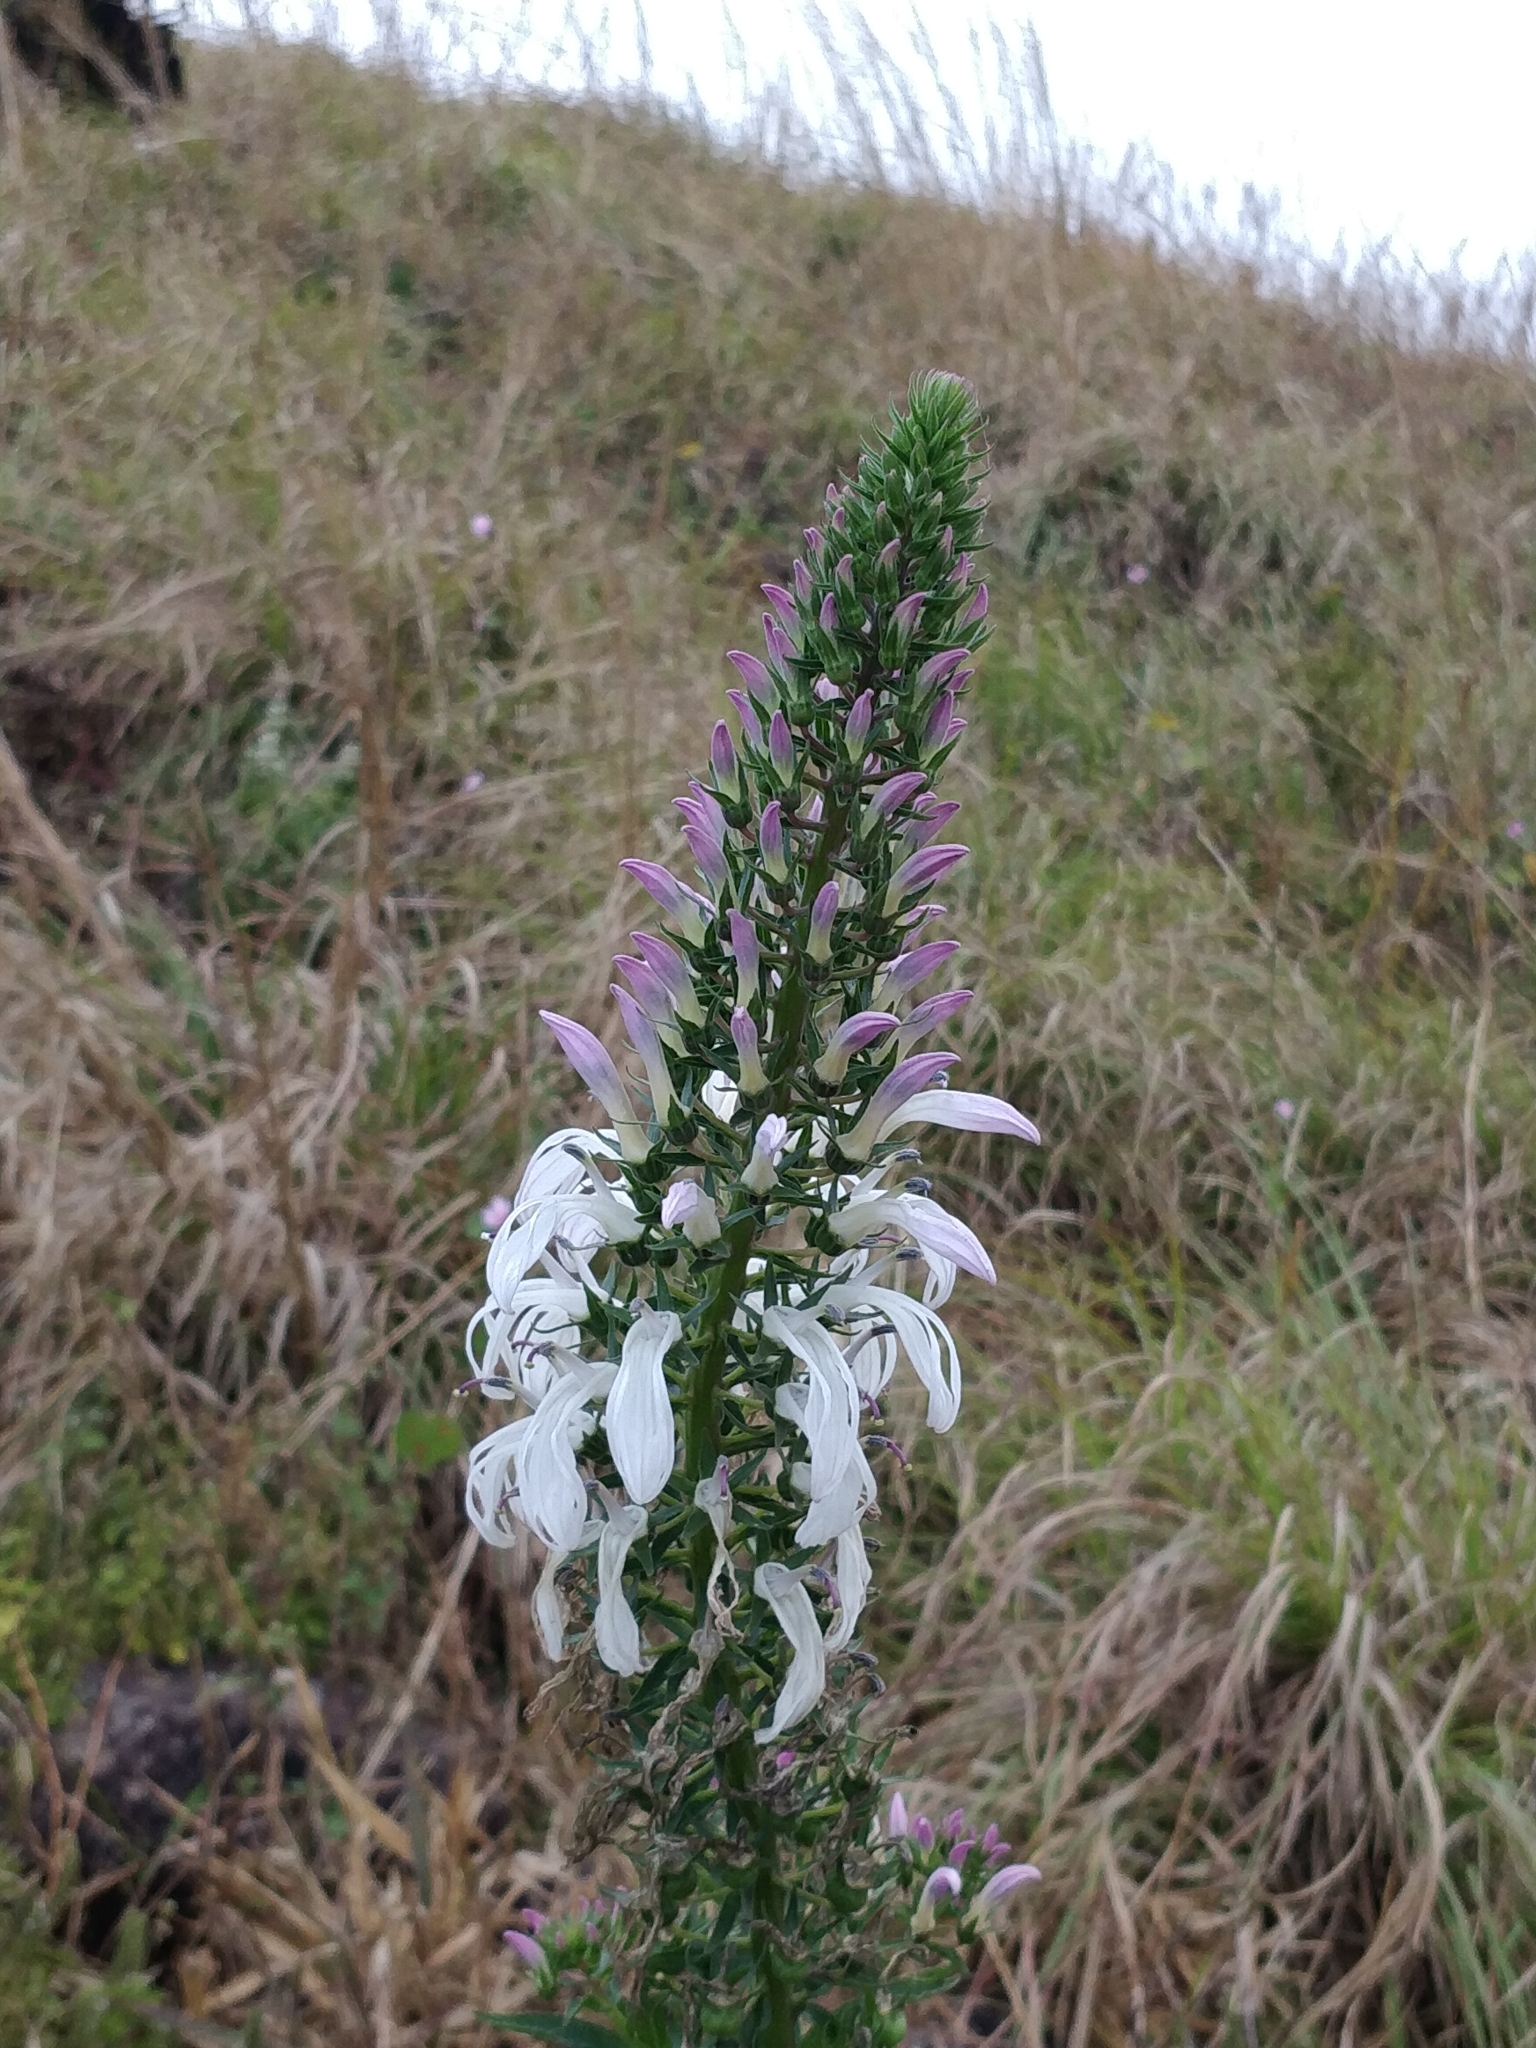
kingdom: Plantae
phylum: Tracheophyta
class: Magnoliopsida
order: Asterales
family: Campanulaceae
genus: Lobelia
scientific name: Lobelia nicotianifolia
